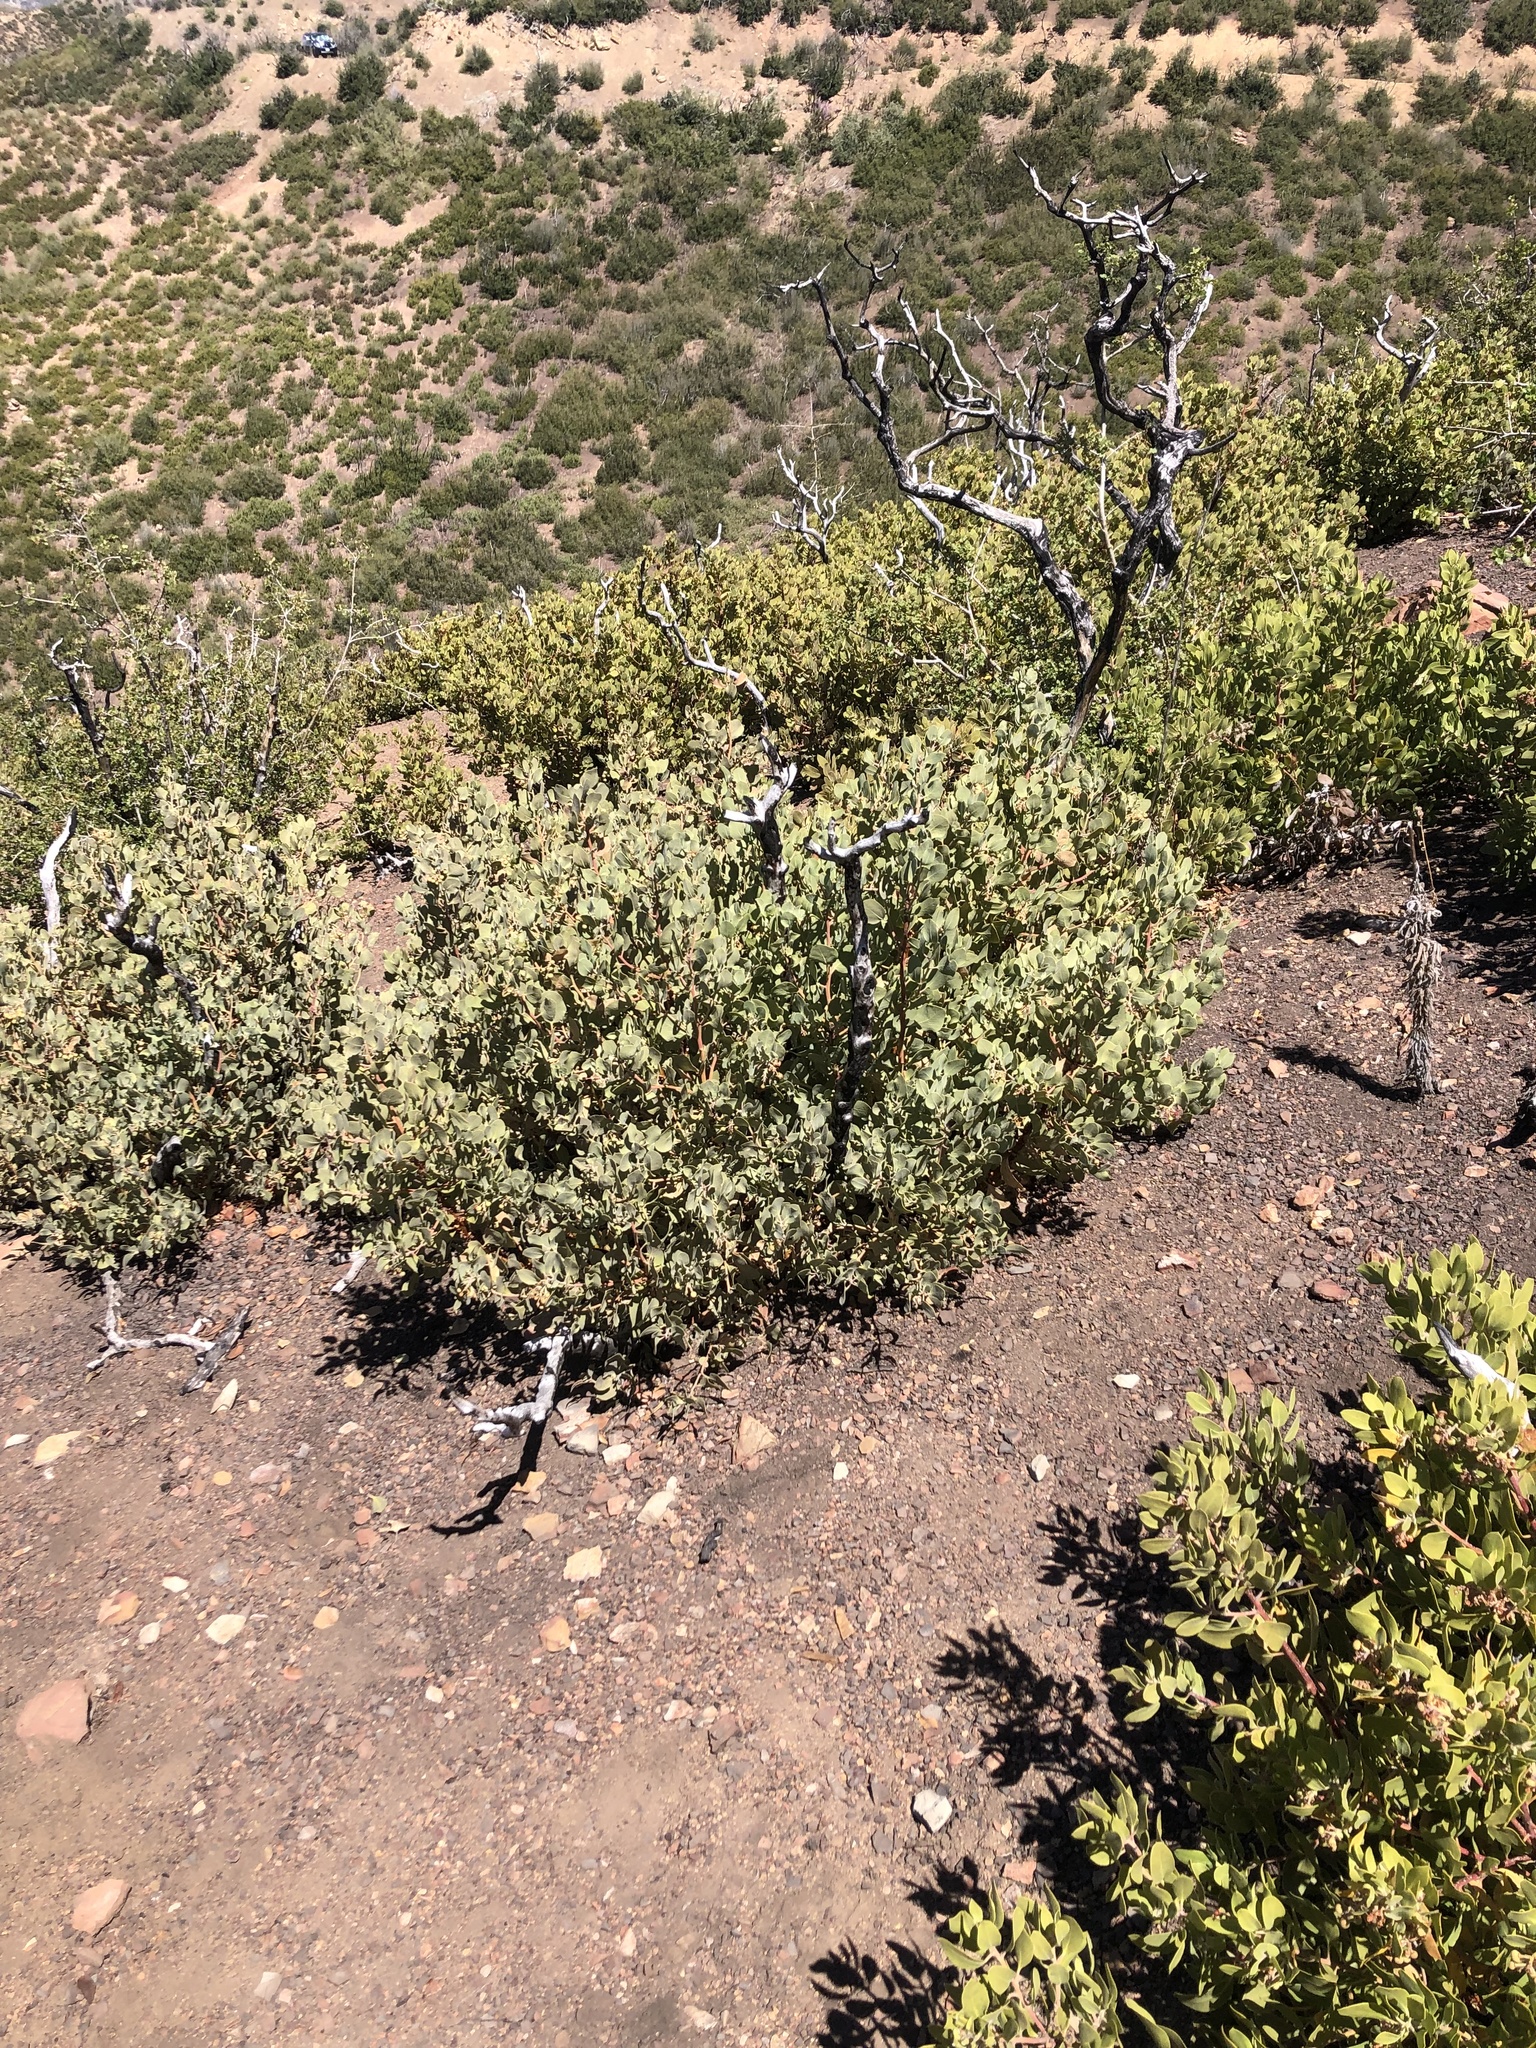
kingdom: Plantae
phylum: Tracheophyta
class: Magnoliopsida
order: Ericales
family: Ericaceae
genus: Arctostaphylos
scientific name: Arctostaphylos glandulosa
